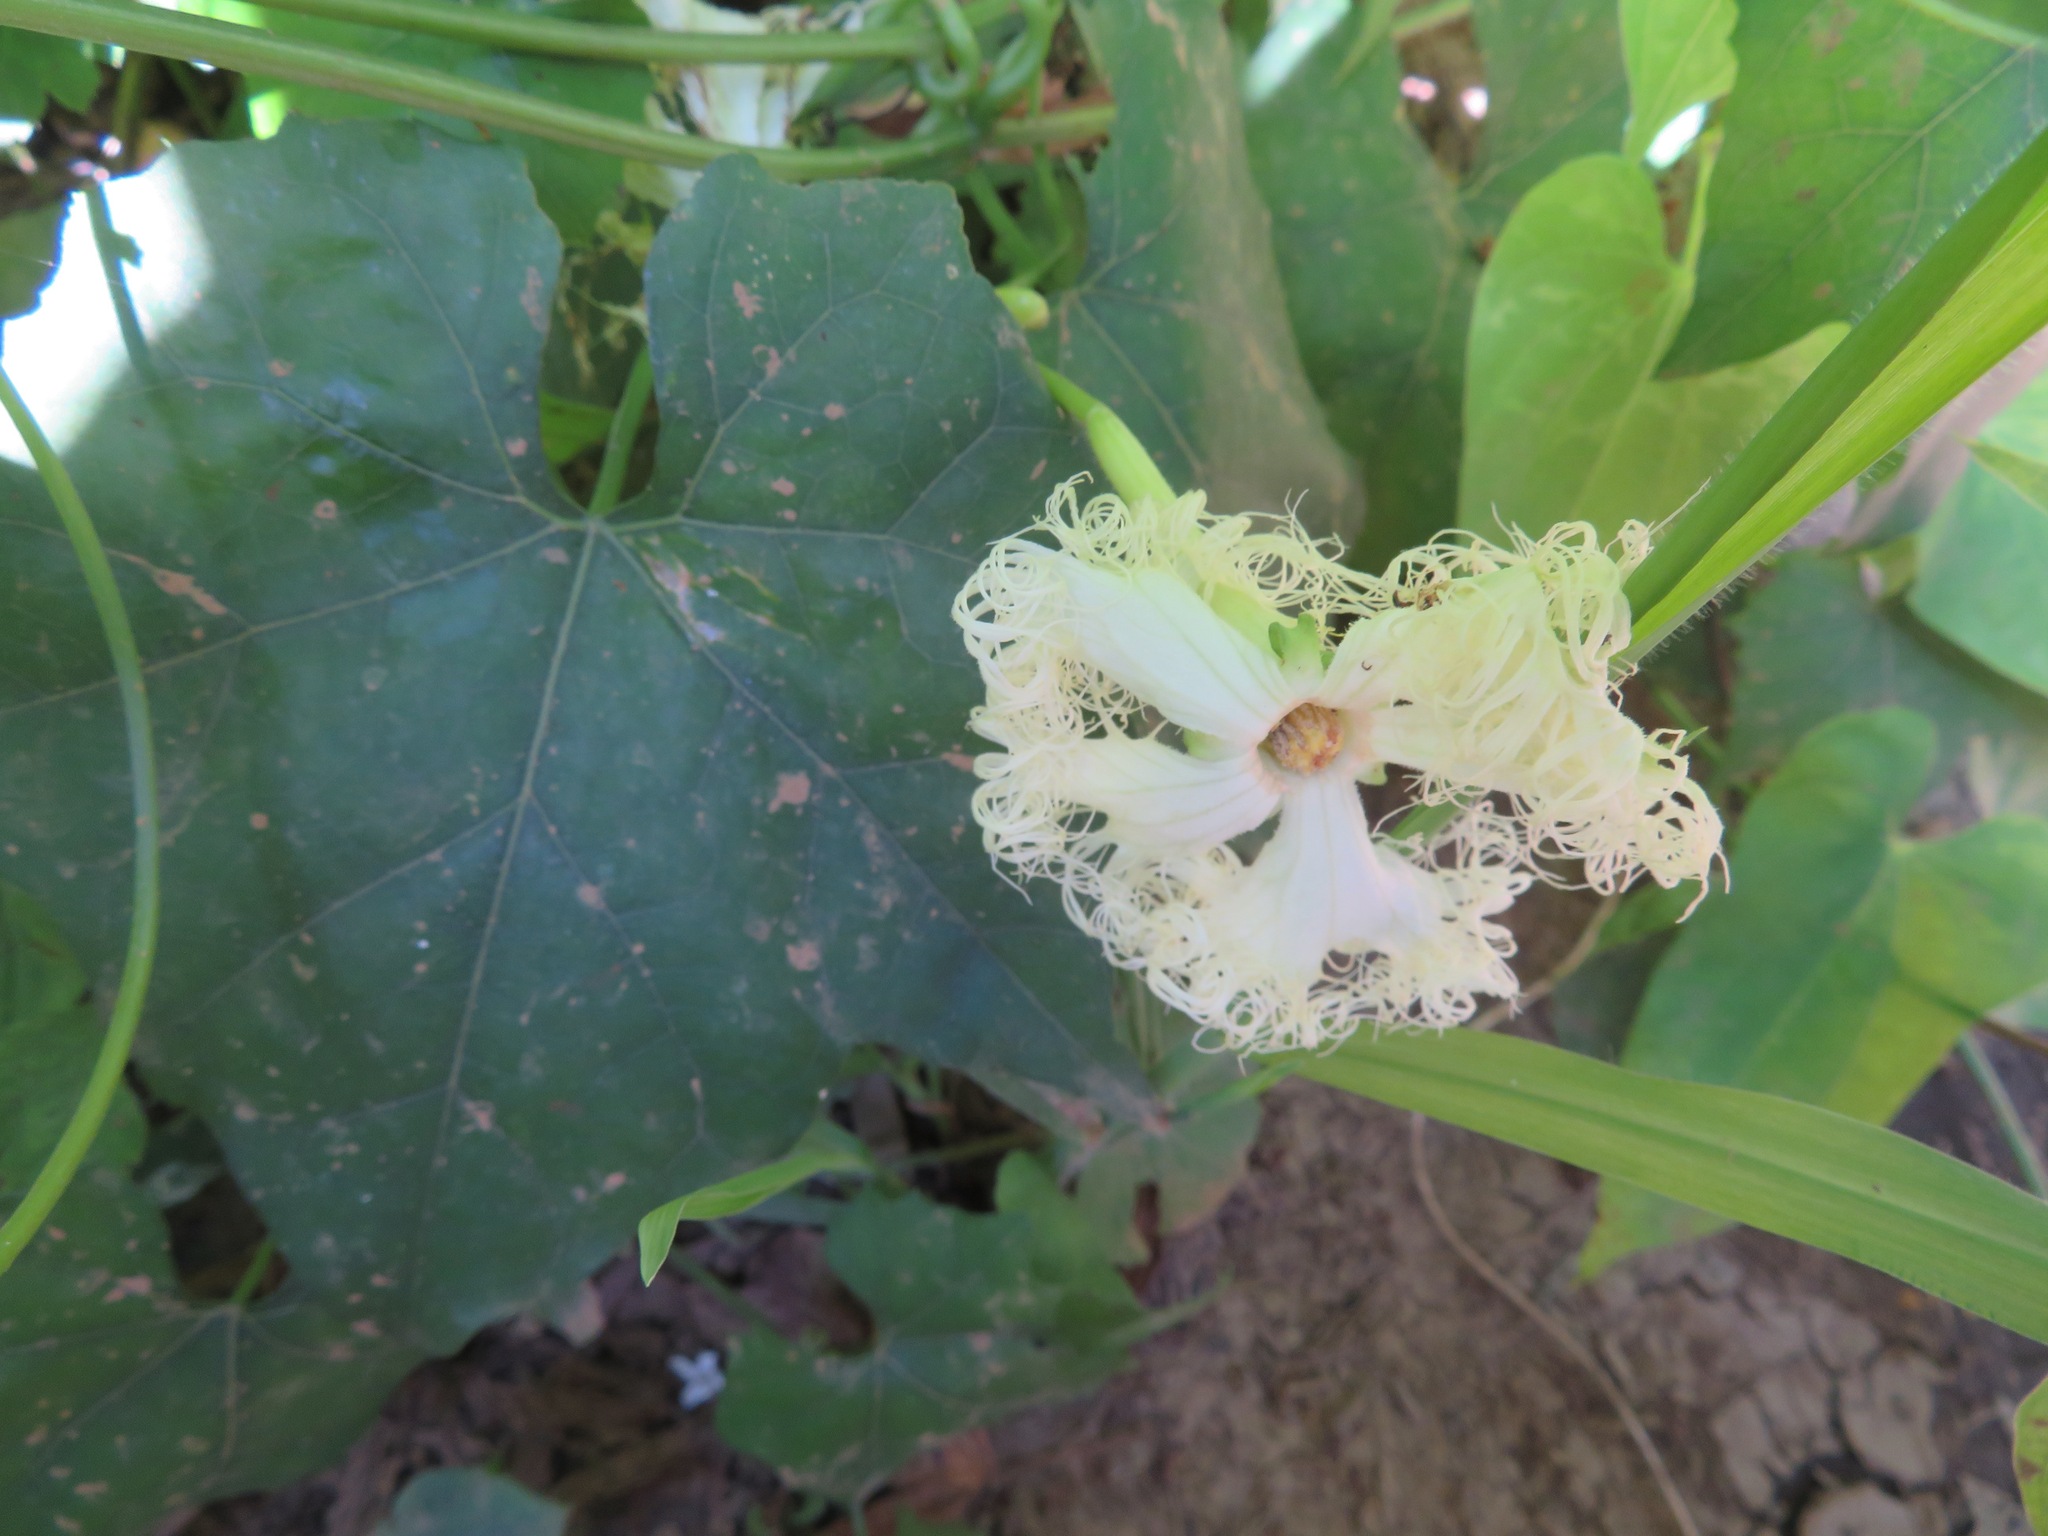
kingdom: Plantae
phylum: Tracheophyta
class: Magnoliopsida
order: Cucurbitales
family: Cucurbitaceae
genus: Trichosanthes
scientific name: Trichosanthes kirilowii
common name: Chinese-cucumber
